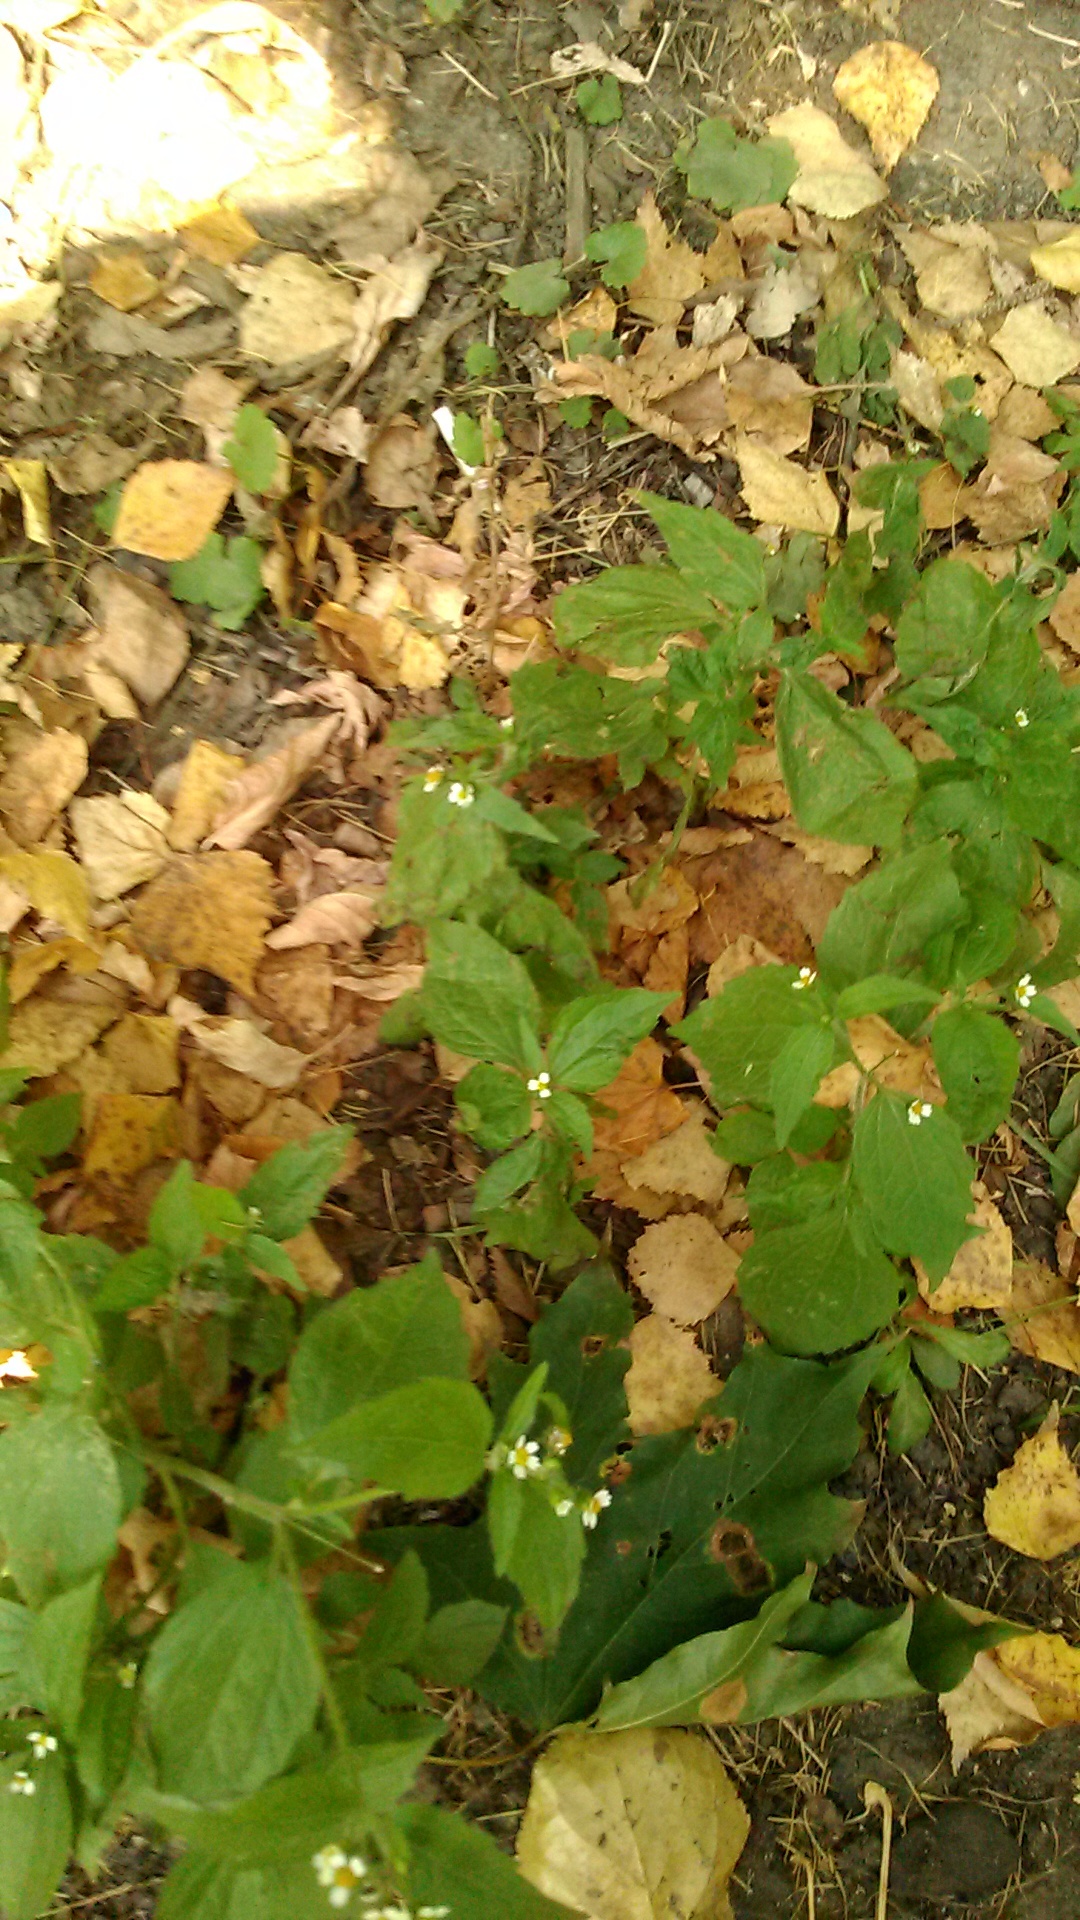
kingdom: Plantae
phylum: Tracheophyta
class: Magnoliopsida
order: Asterales
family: Asteraceae
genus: Galinsoga
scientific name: Galinsoga quadriradiata
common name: Shaggy soldier
